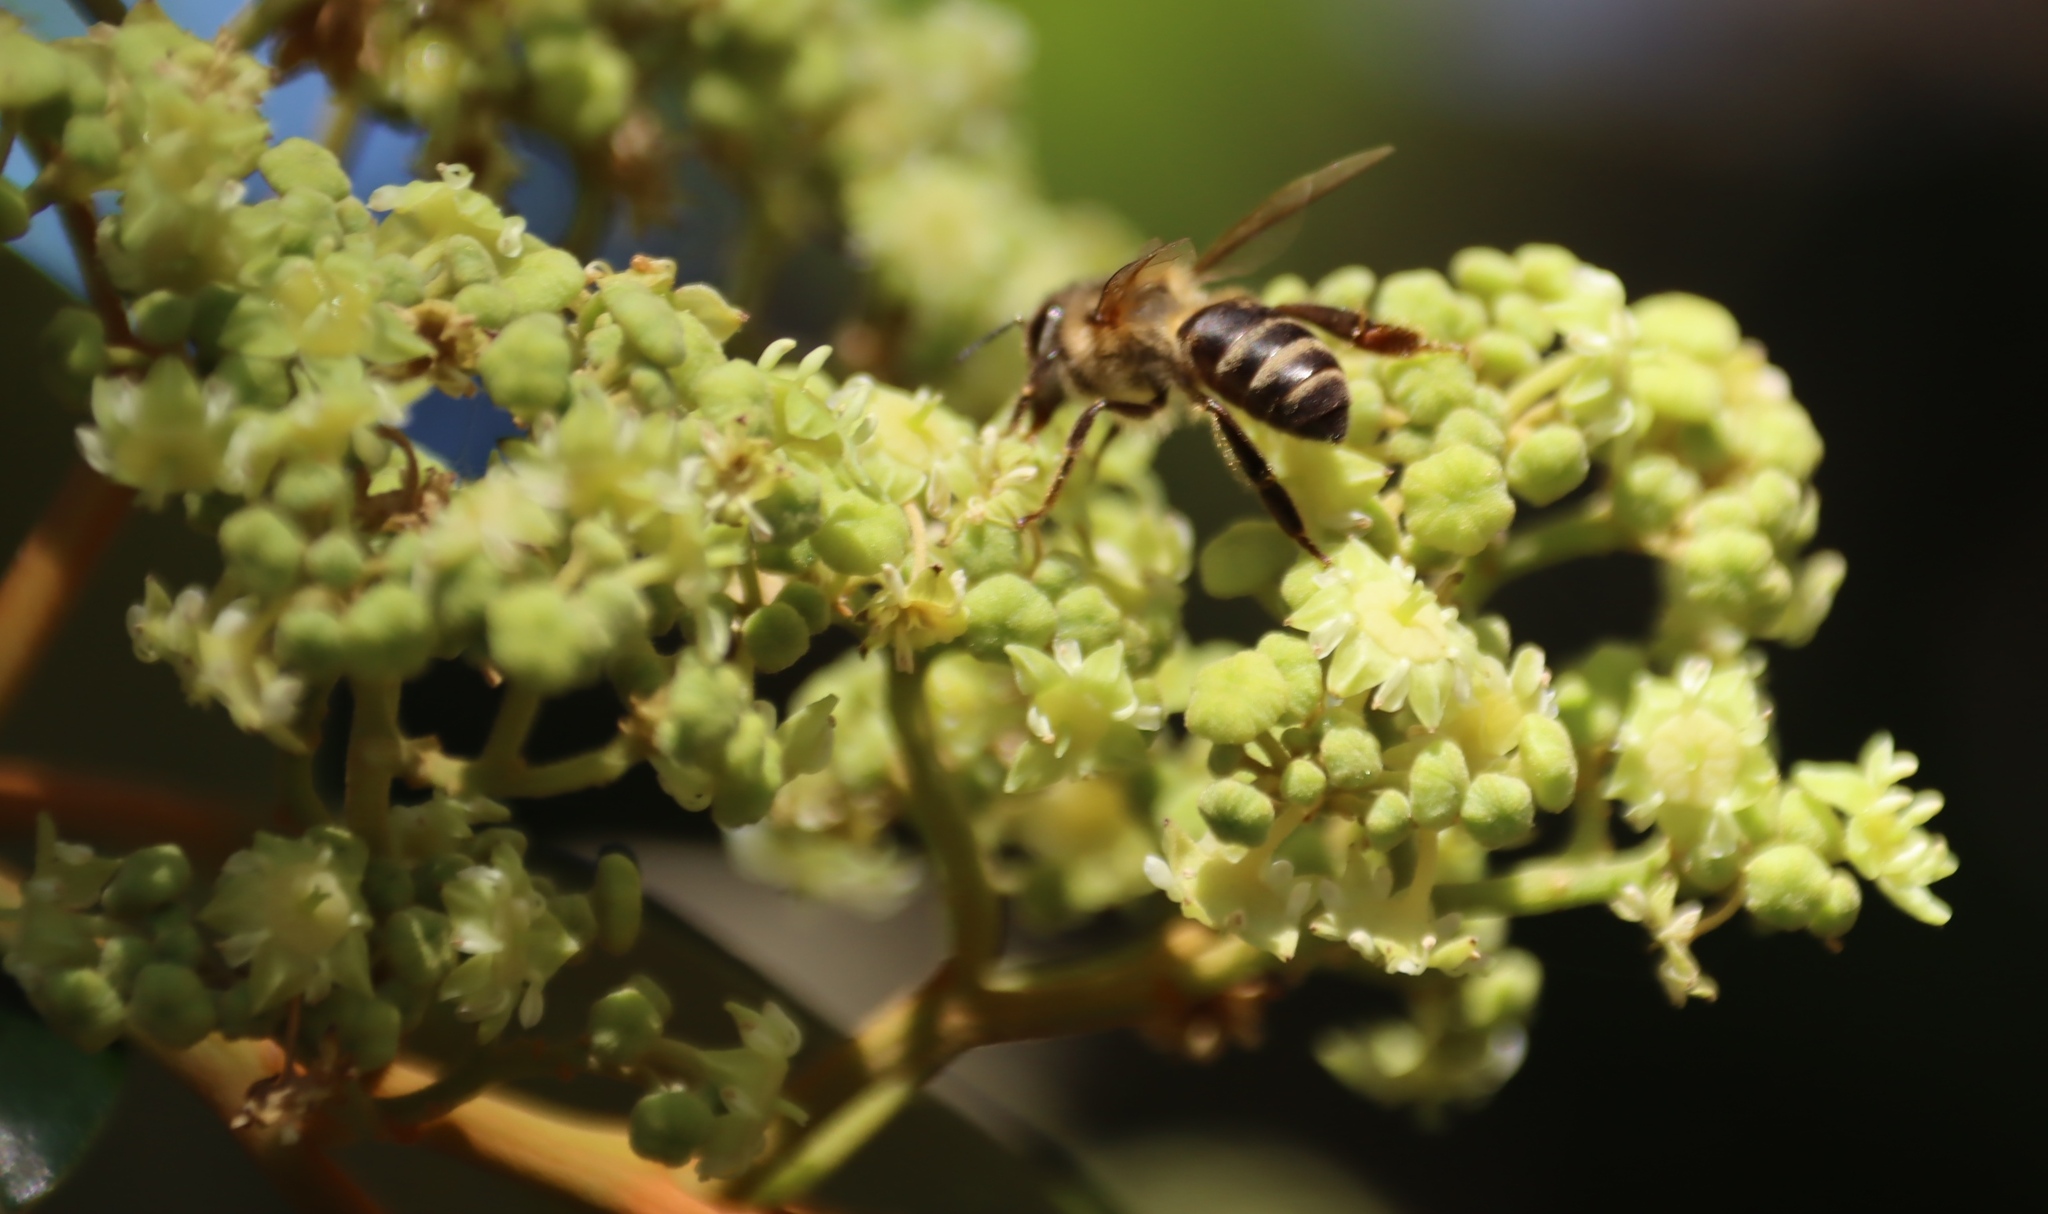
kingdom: Animalia
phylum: Arthropoda
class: Insecta
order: Hymenoptera
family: Apidae
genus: Apis
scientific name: Apis mellifera
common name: Honey bee
